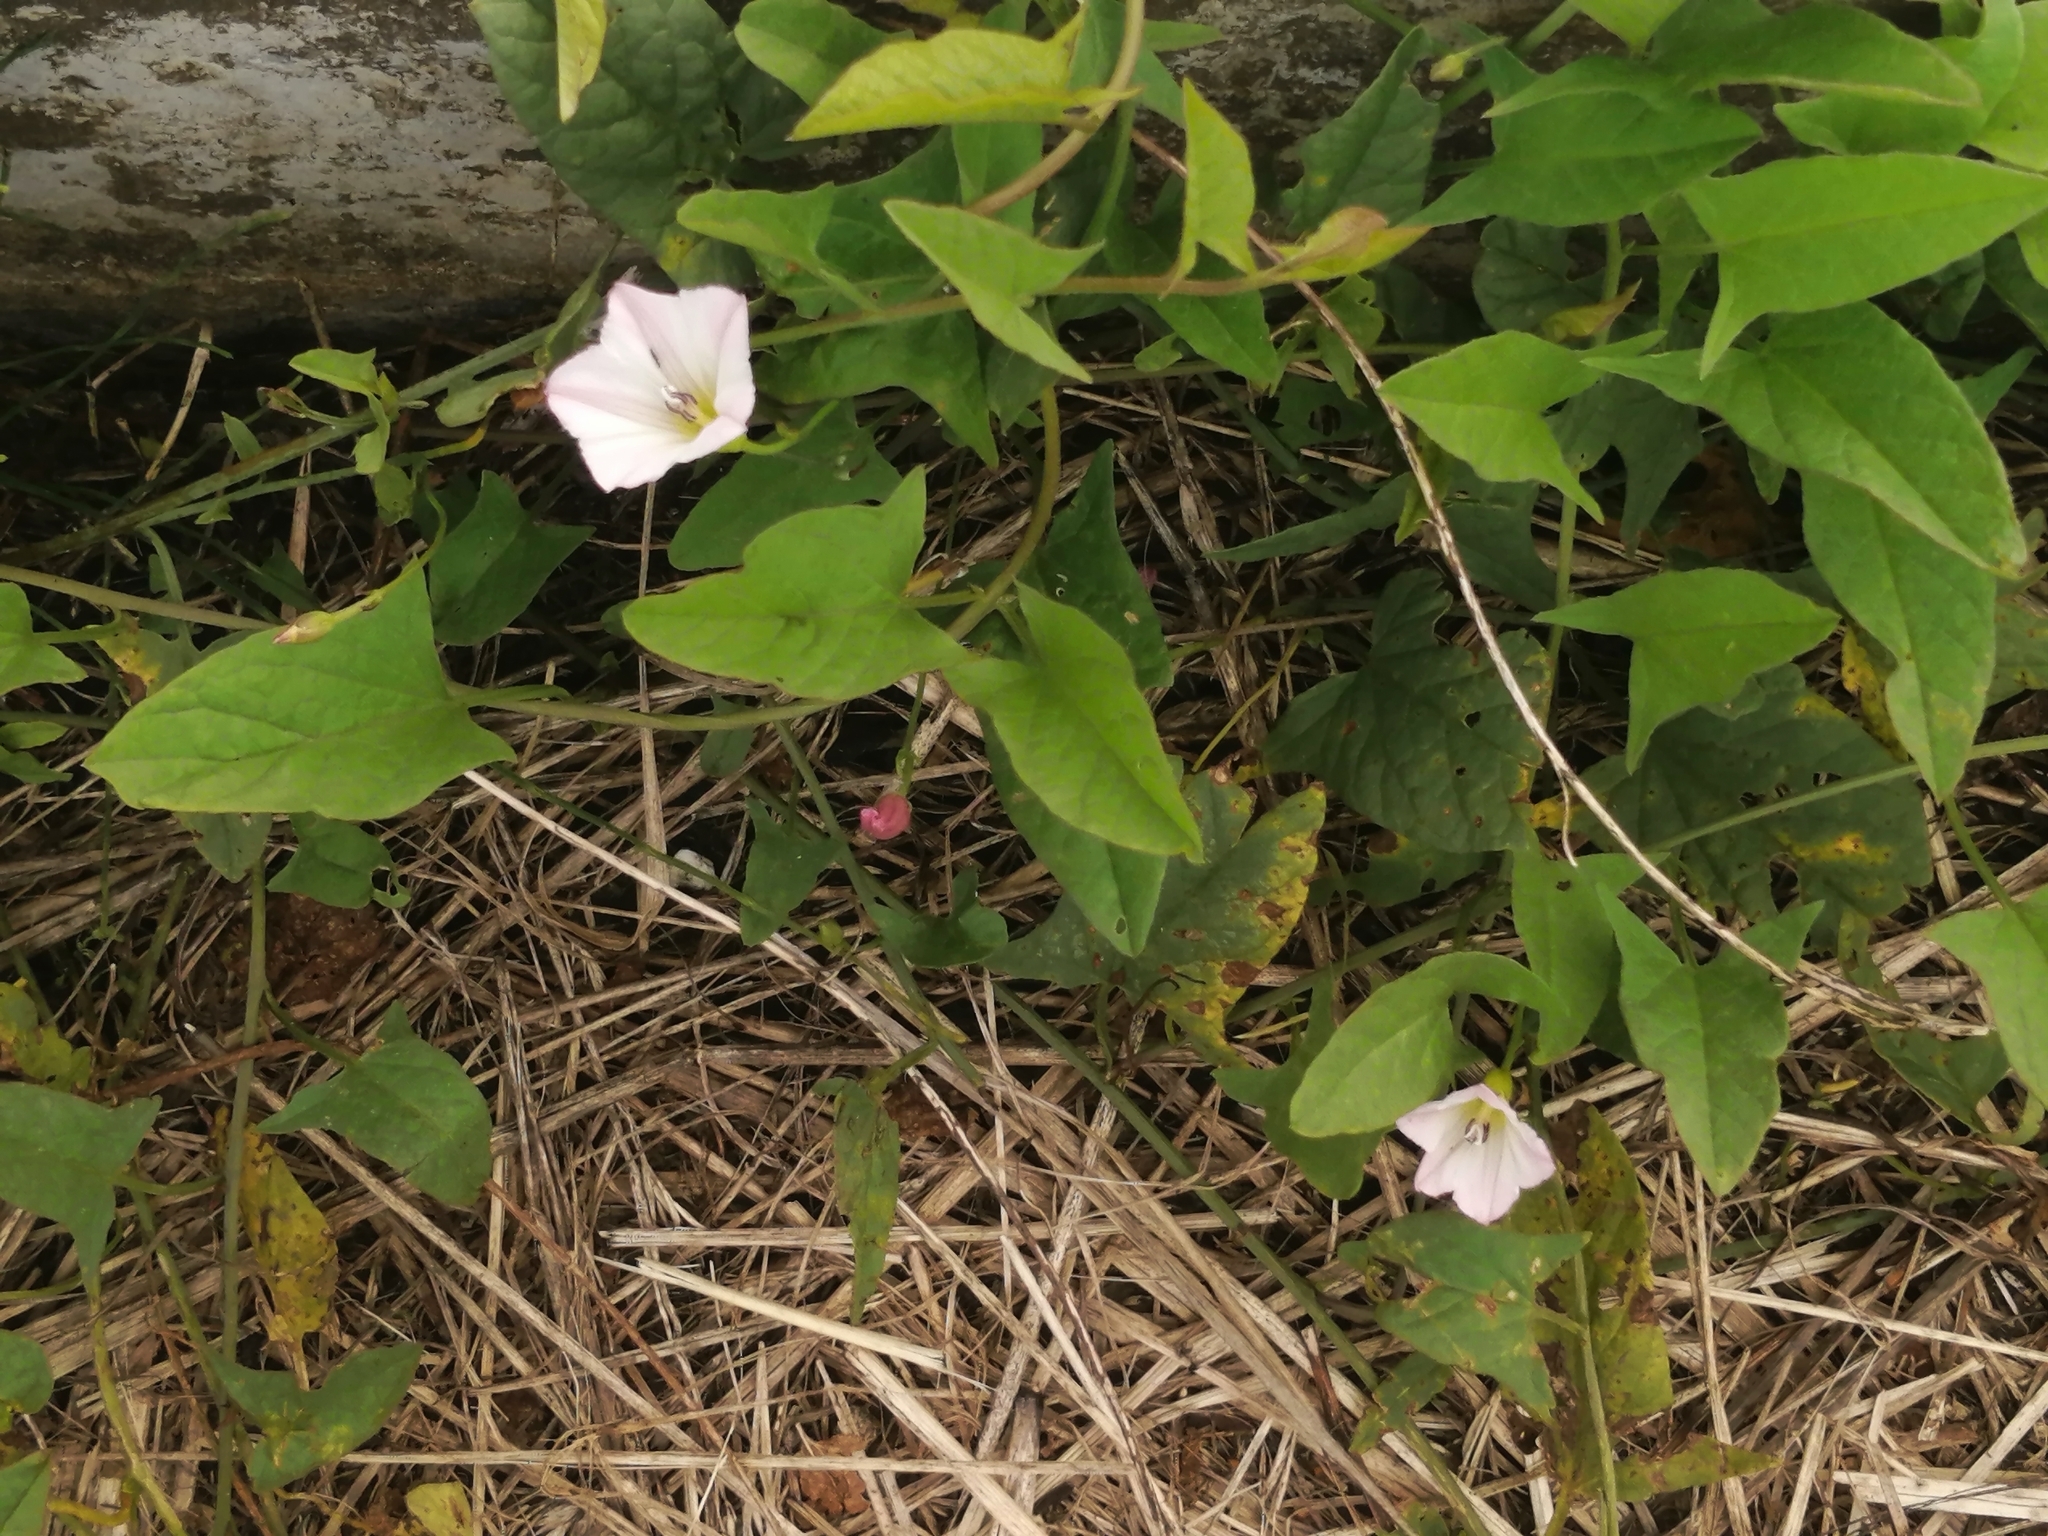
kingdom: Plantae
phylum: Tracheophyta
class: Magnoliopsida
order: Solanales
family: Convolvulaceae
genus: Convolvulus
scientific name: Convolvulus arvensis
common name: Field bindweed
